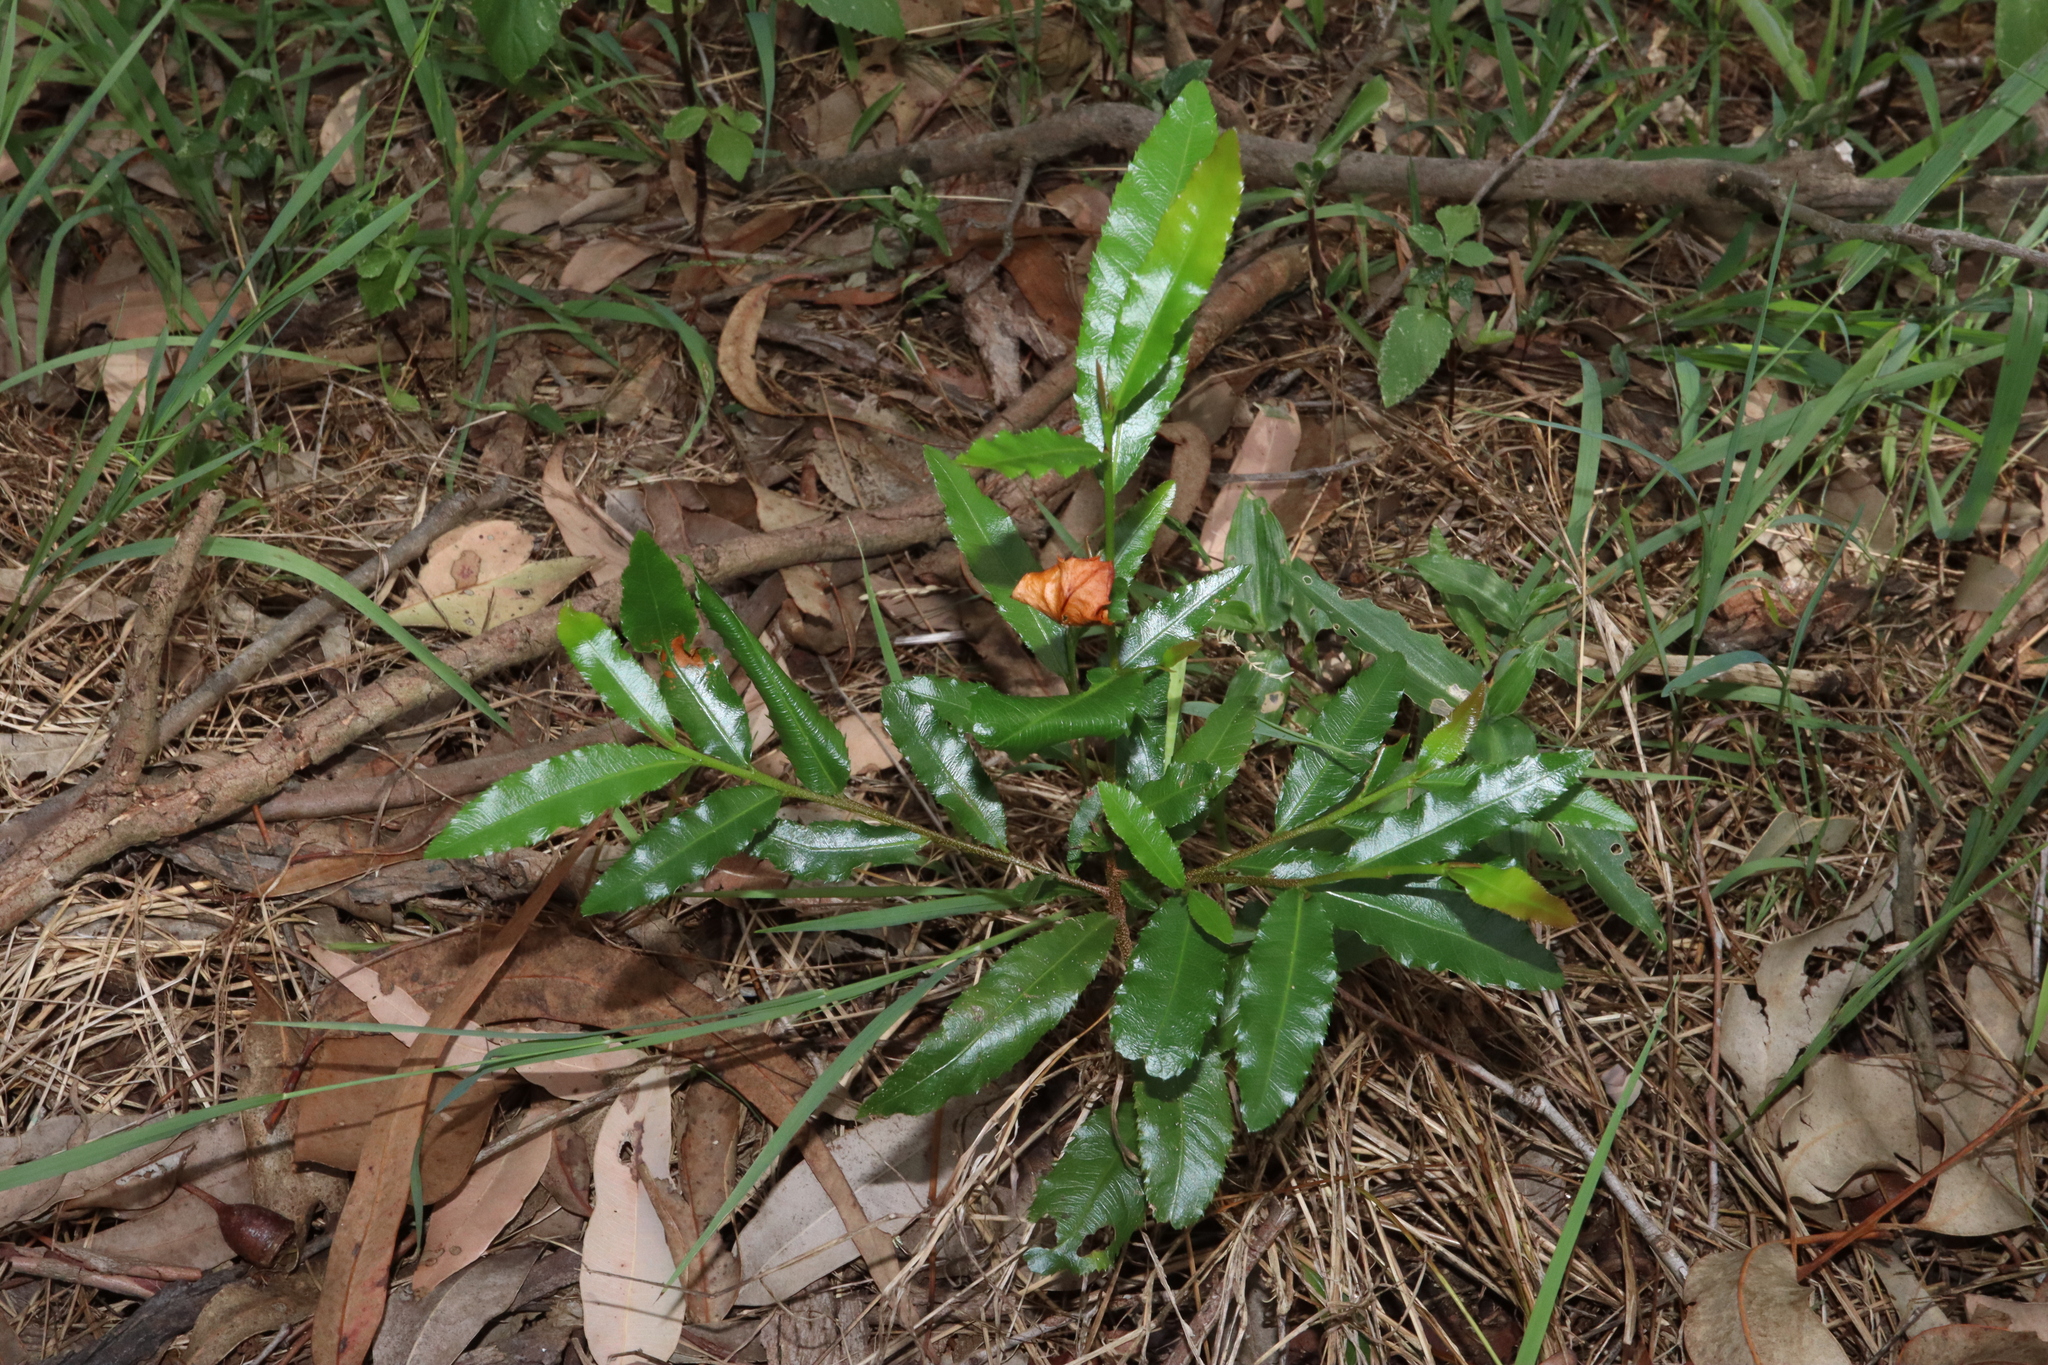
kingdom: Plantae
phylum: Tracheophyta
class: Magnoliopsida
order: Malpighiales
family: Ochnaceae
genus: Ochna
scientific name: Ochna serrulata
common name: Mickey mouse plant
